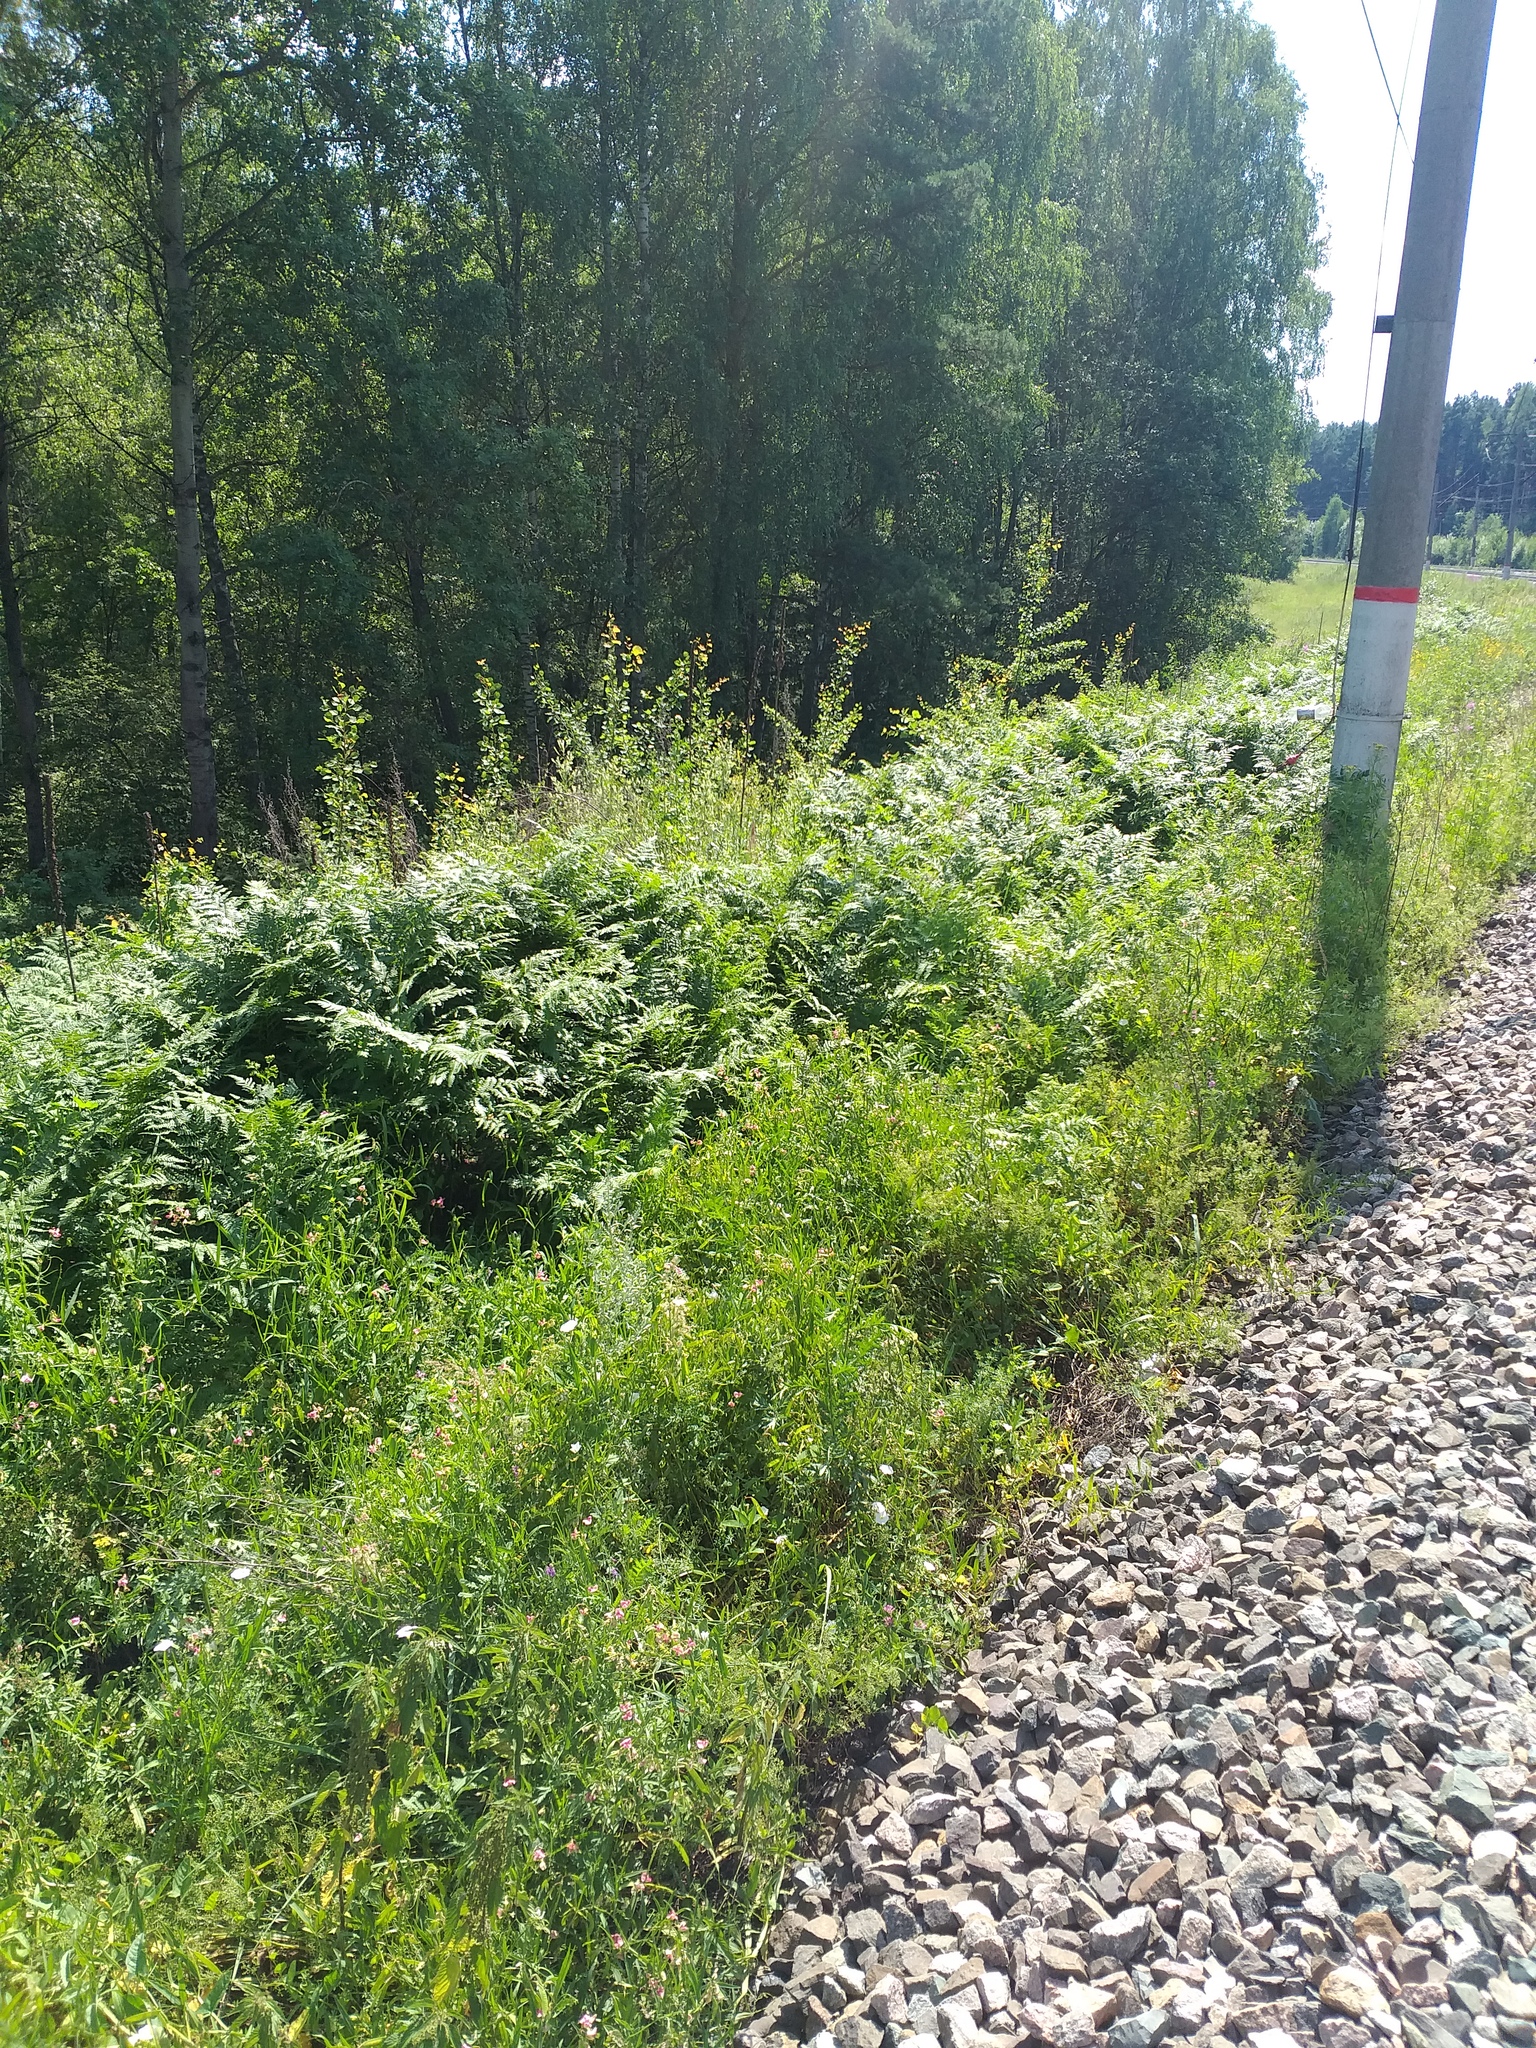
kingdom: Plantae
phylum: Tracheophyta
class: Polypodiopsida
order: Polypodiales
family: Dennstaedtiaceae
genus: Pteridium
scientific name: Pteridium aquilinum
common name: Bracken
